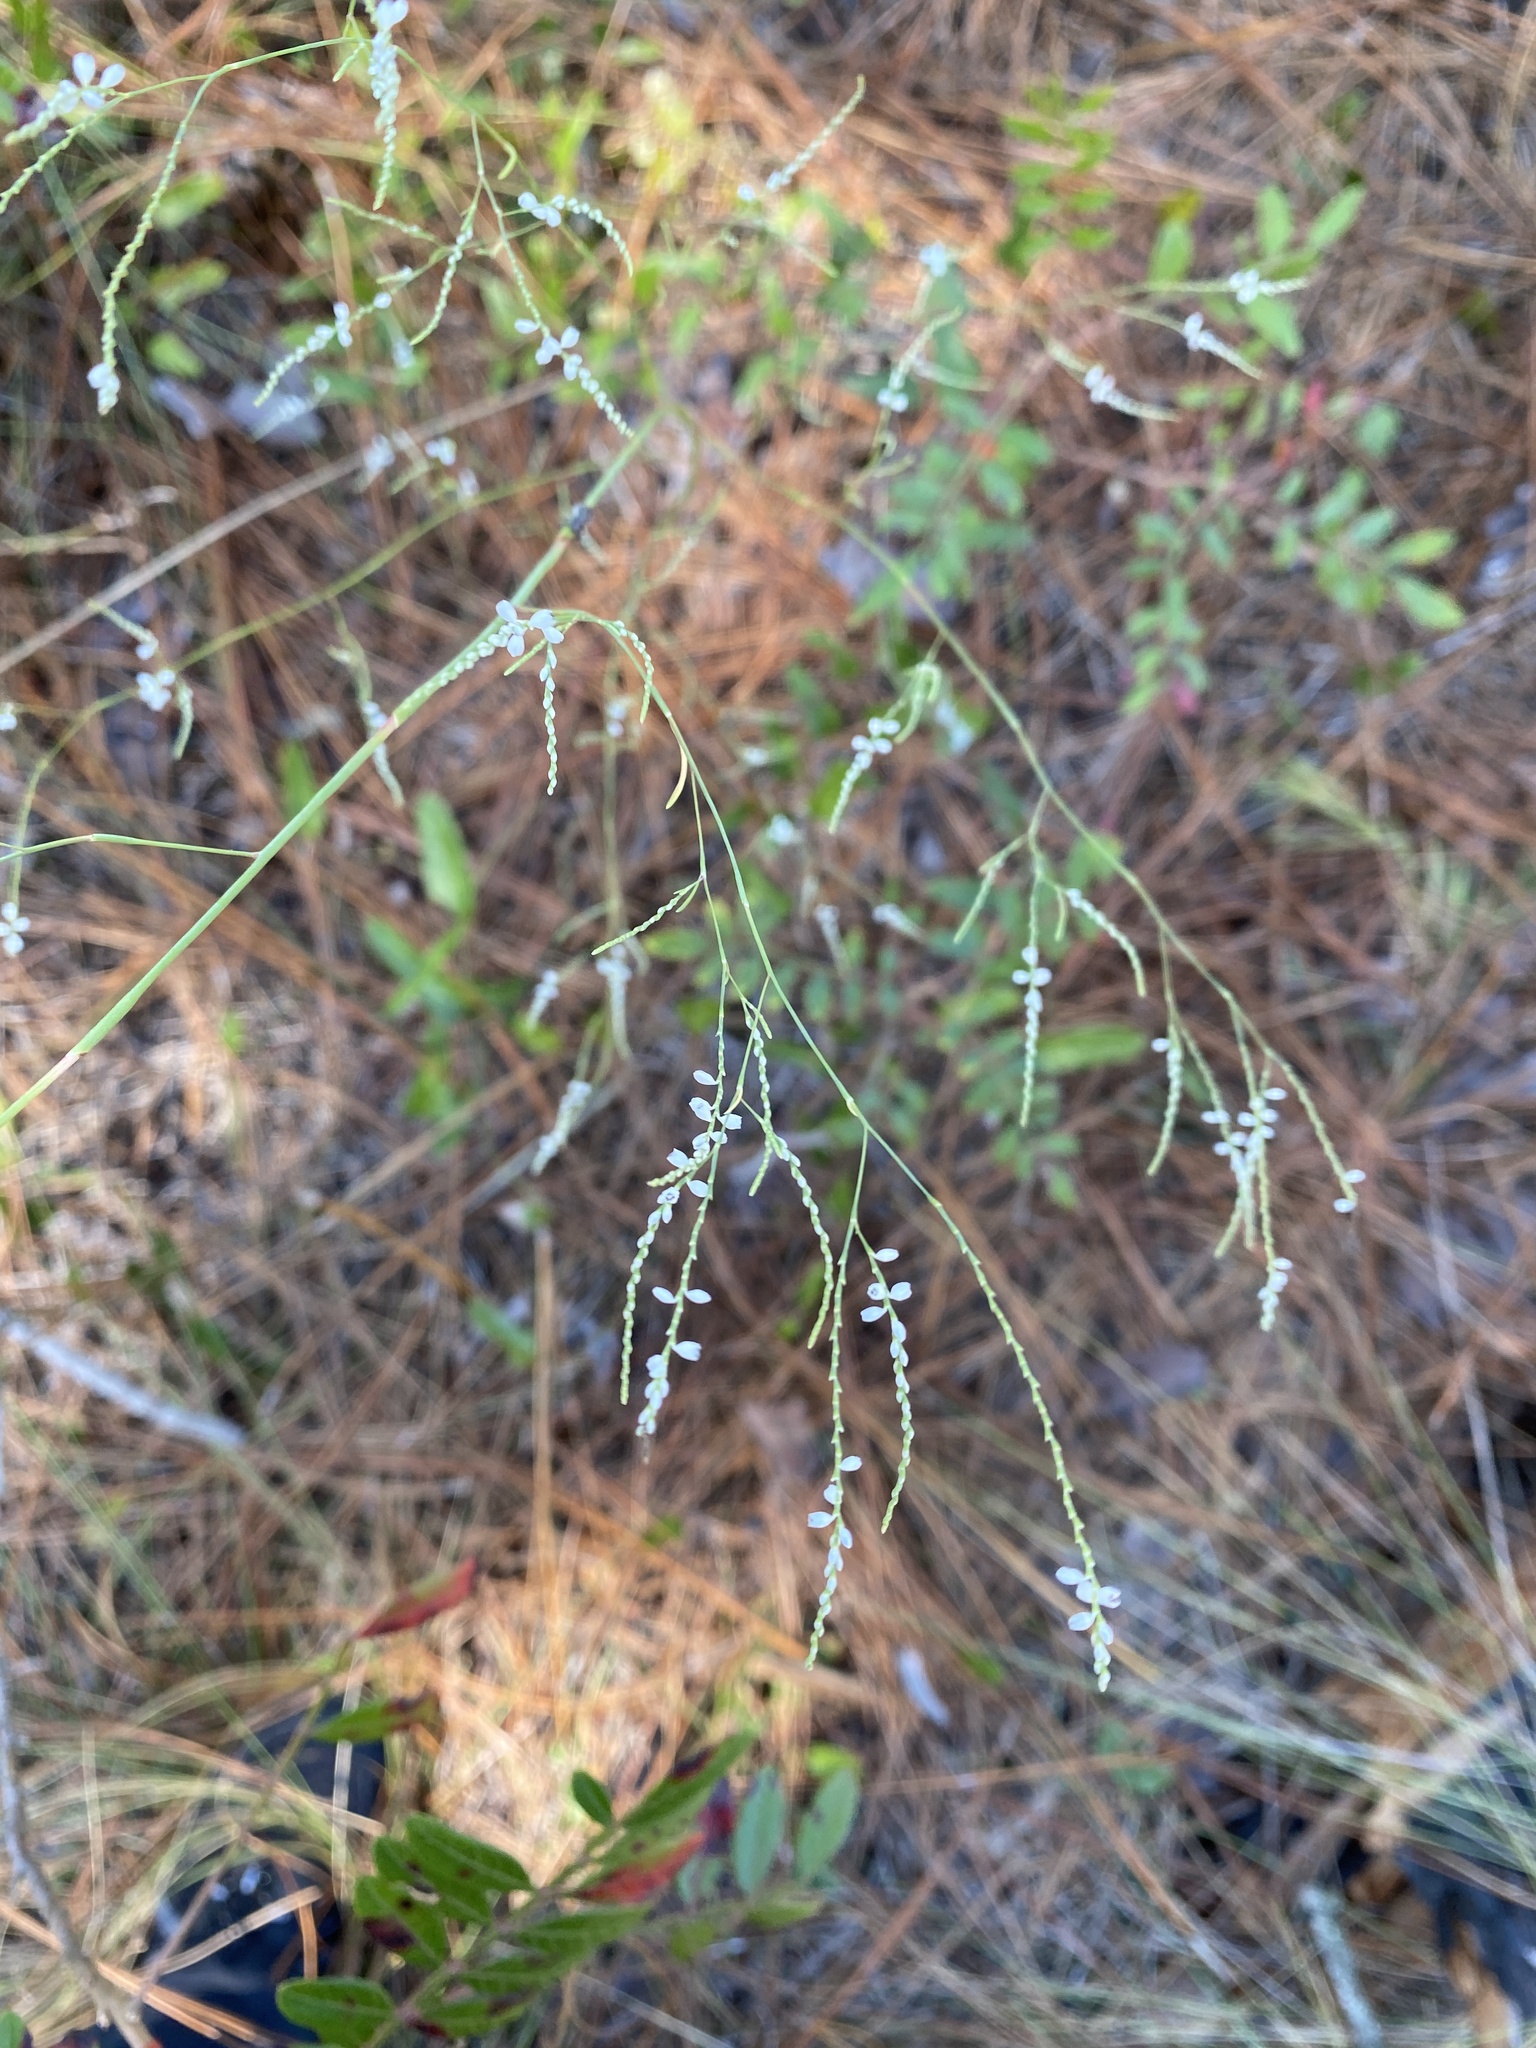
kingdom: Plantae
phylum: Tracheophyta
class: Magnoliopsida
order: Caryophyllales
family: Polygonaceae
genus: Polygonella
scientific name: Polygonella gracilis
